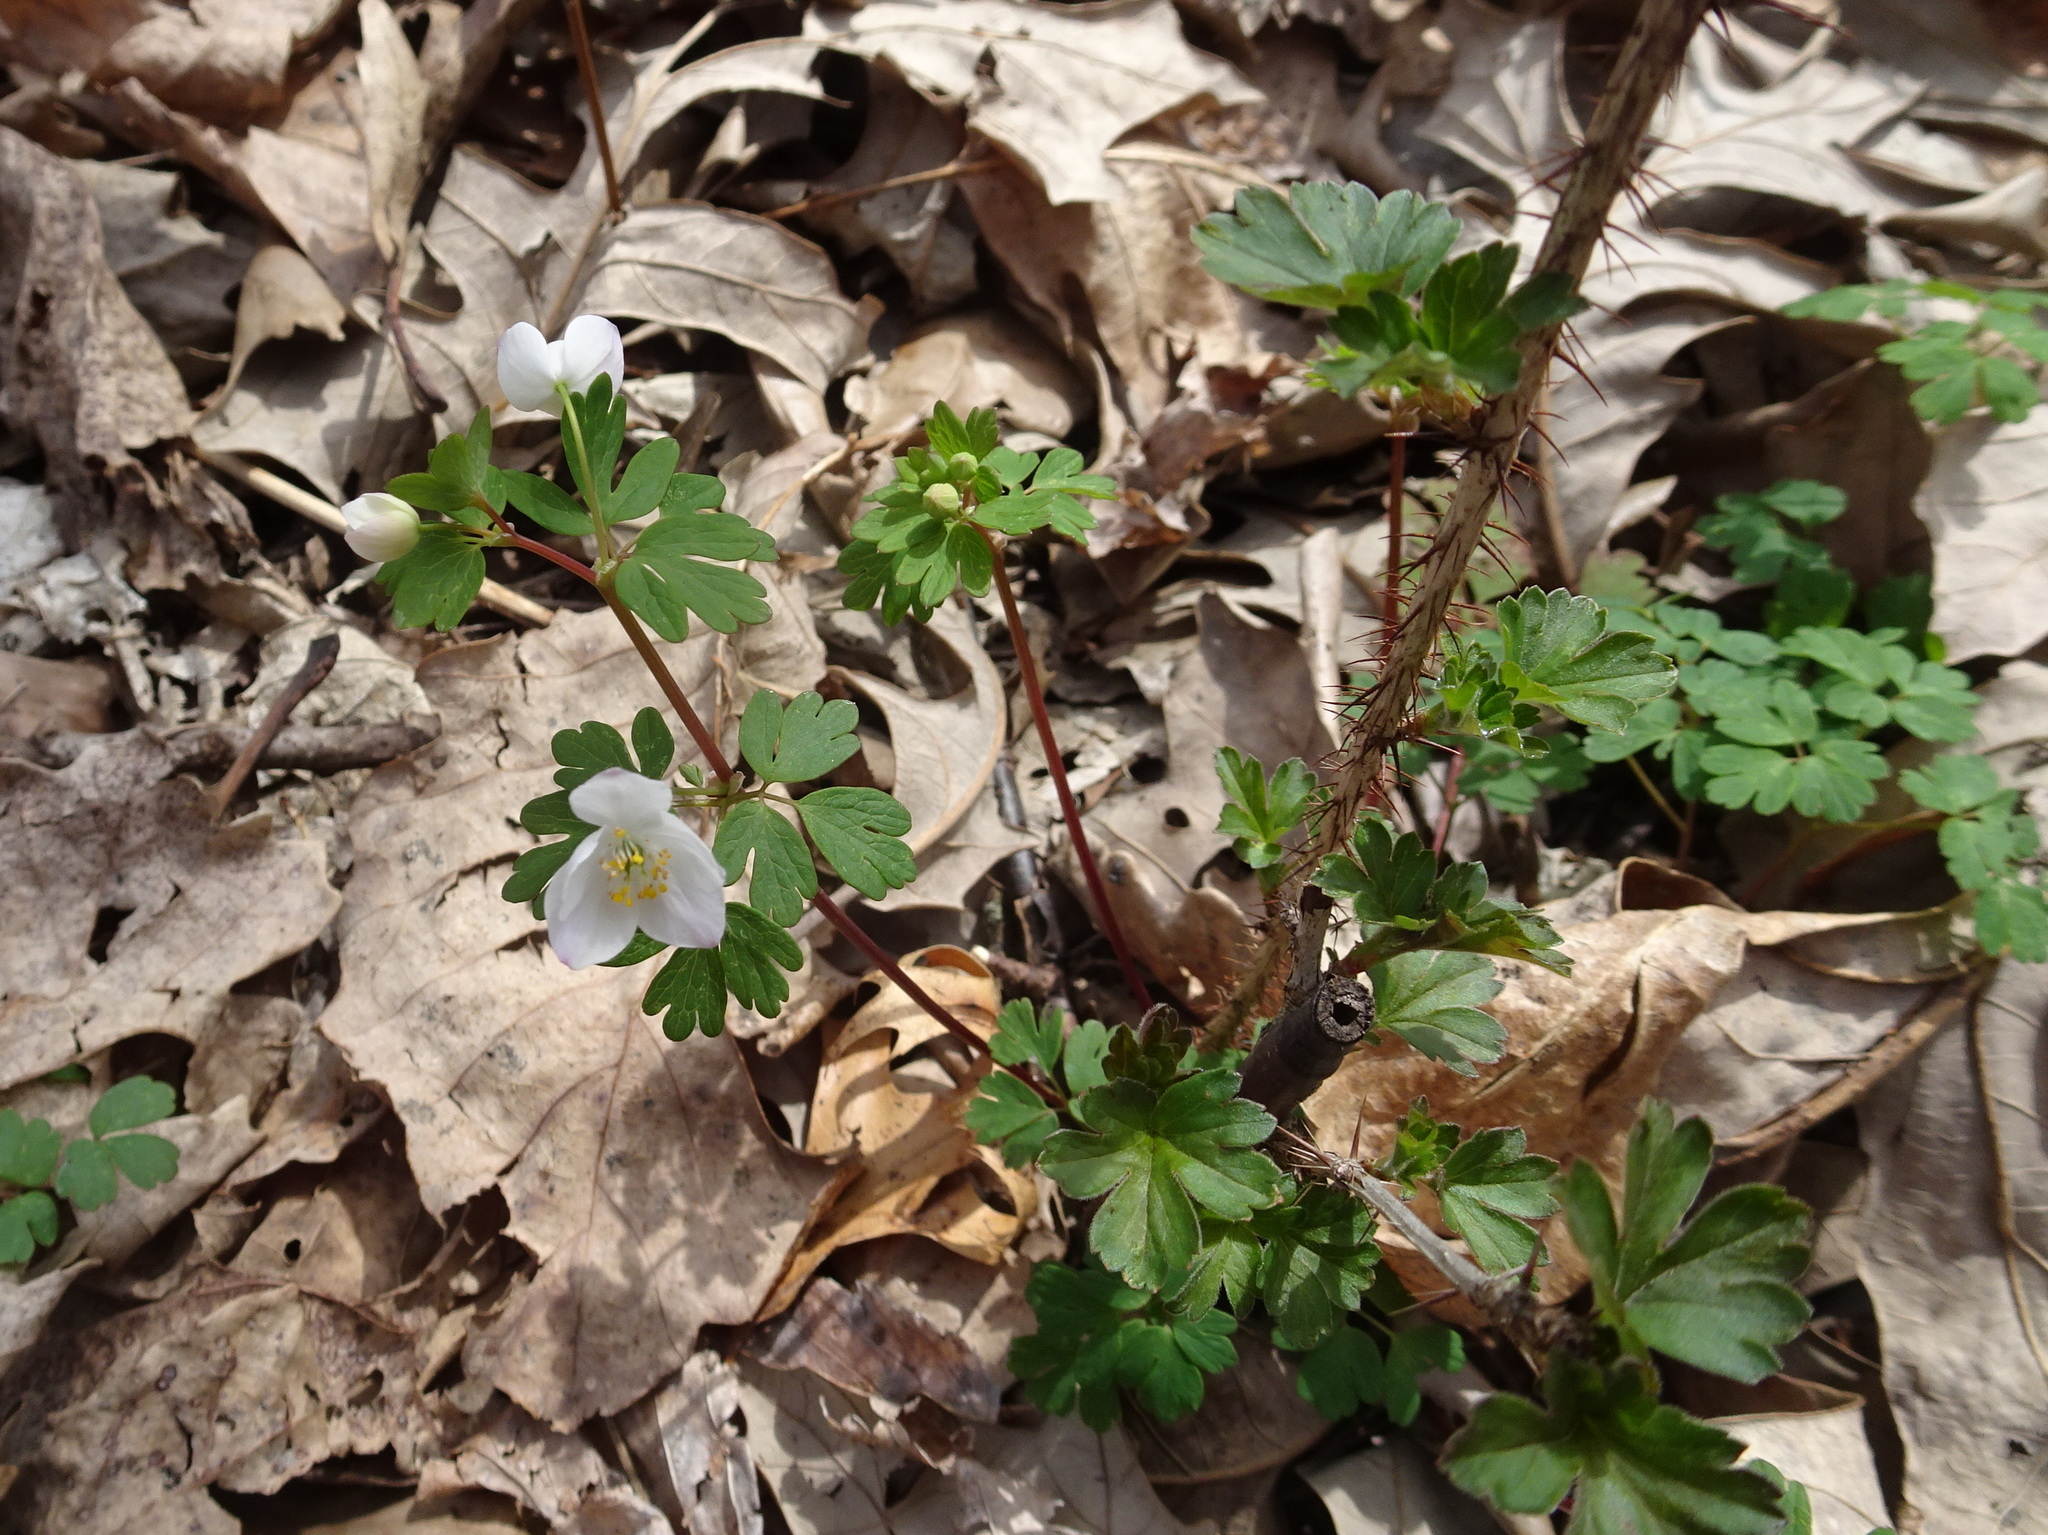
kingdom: Plantae
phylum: Tracheophyta
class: Magnoliopsida
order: Ranunculales
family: Ranunculaceae
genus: Enemion
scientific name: Enemion biternatum
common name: Eastern false rue-anemone
